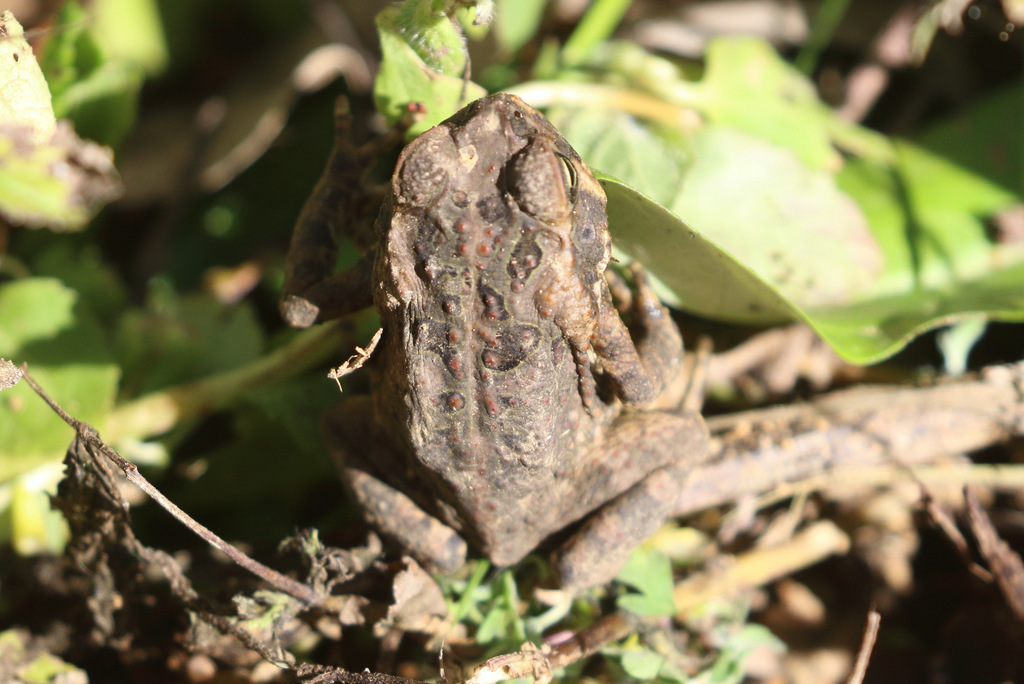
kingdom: Animalia
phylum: Chordata
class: Amphibia
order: Anura
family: Bufonidae
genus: Rhinella
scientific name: Rhinella marina
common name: Cane toad
